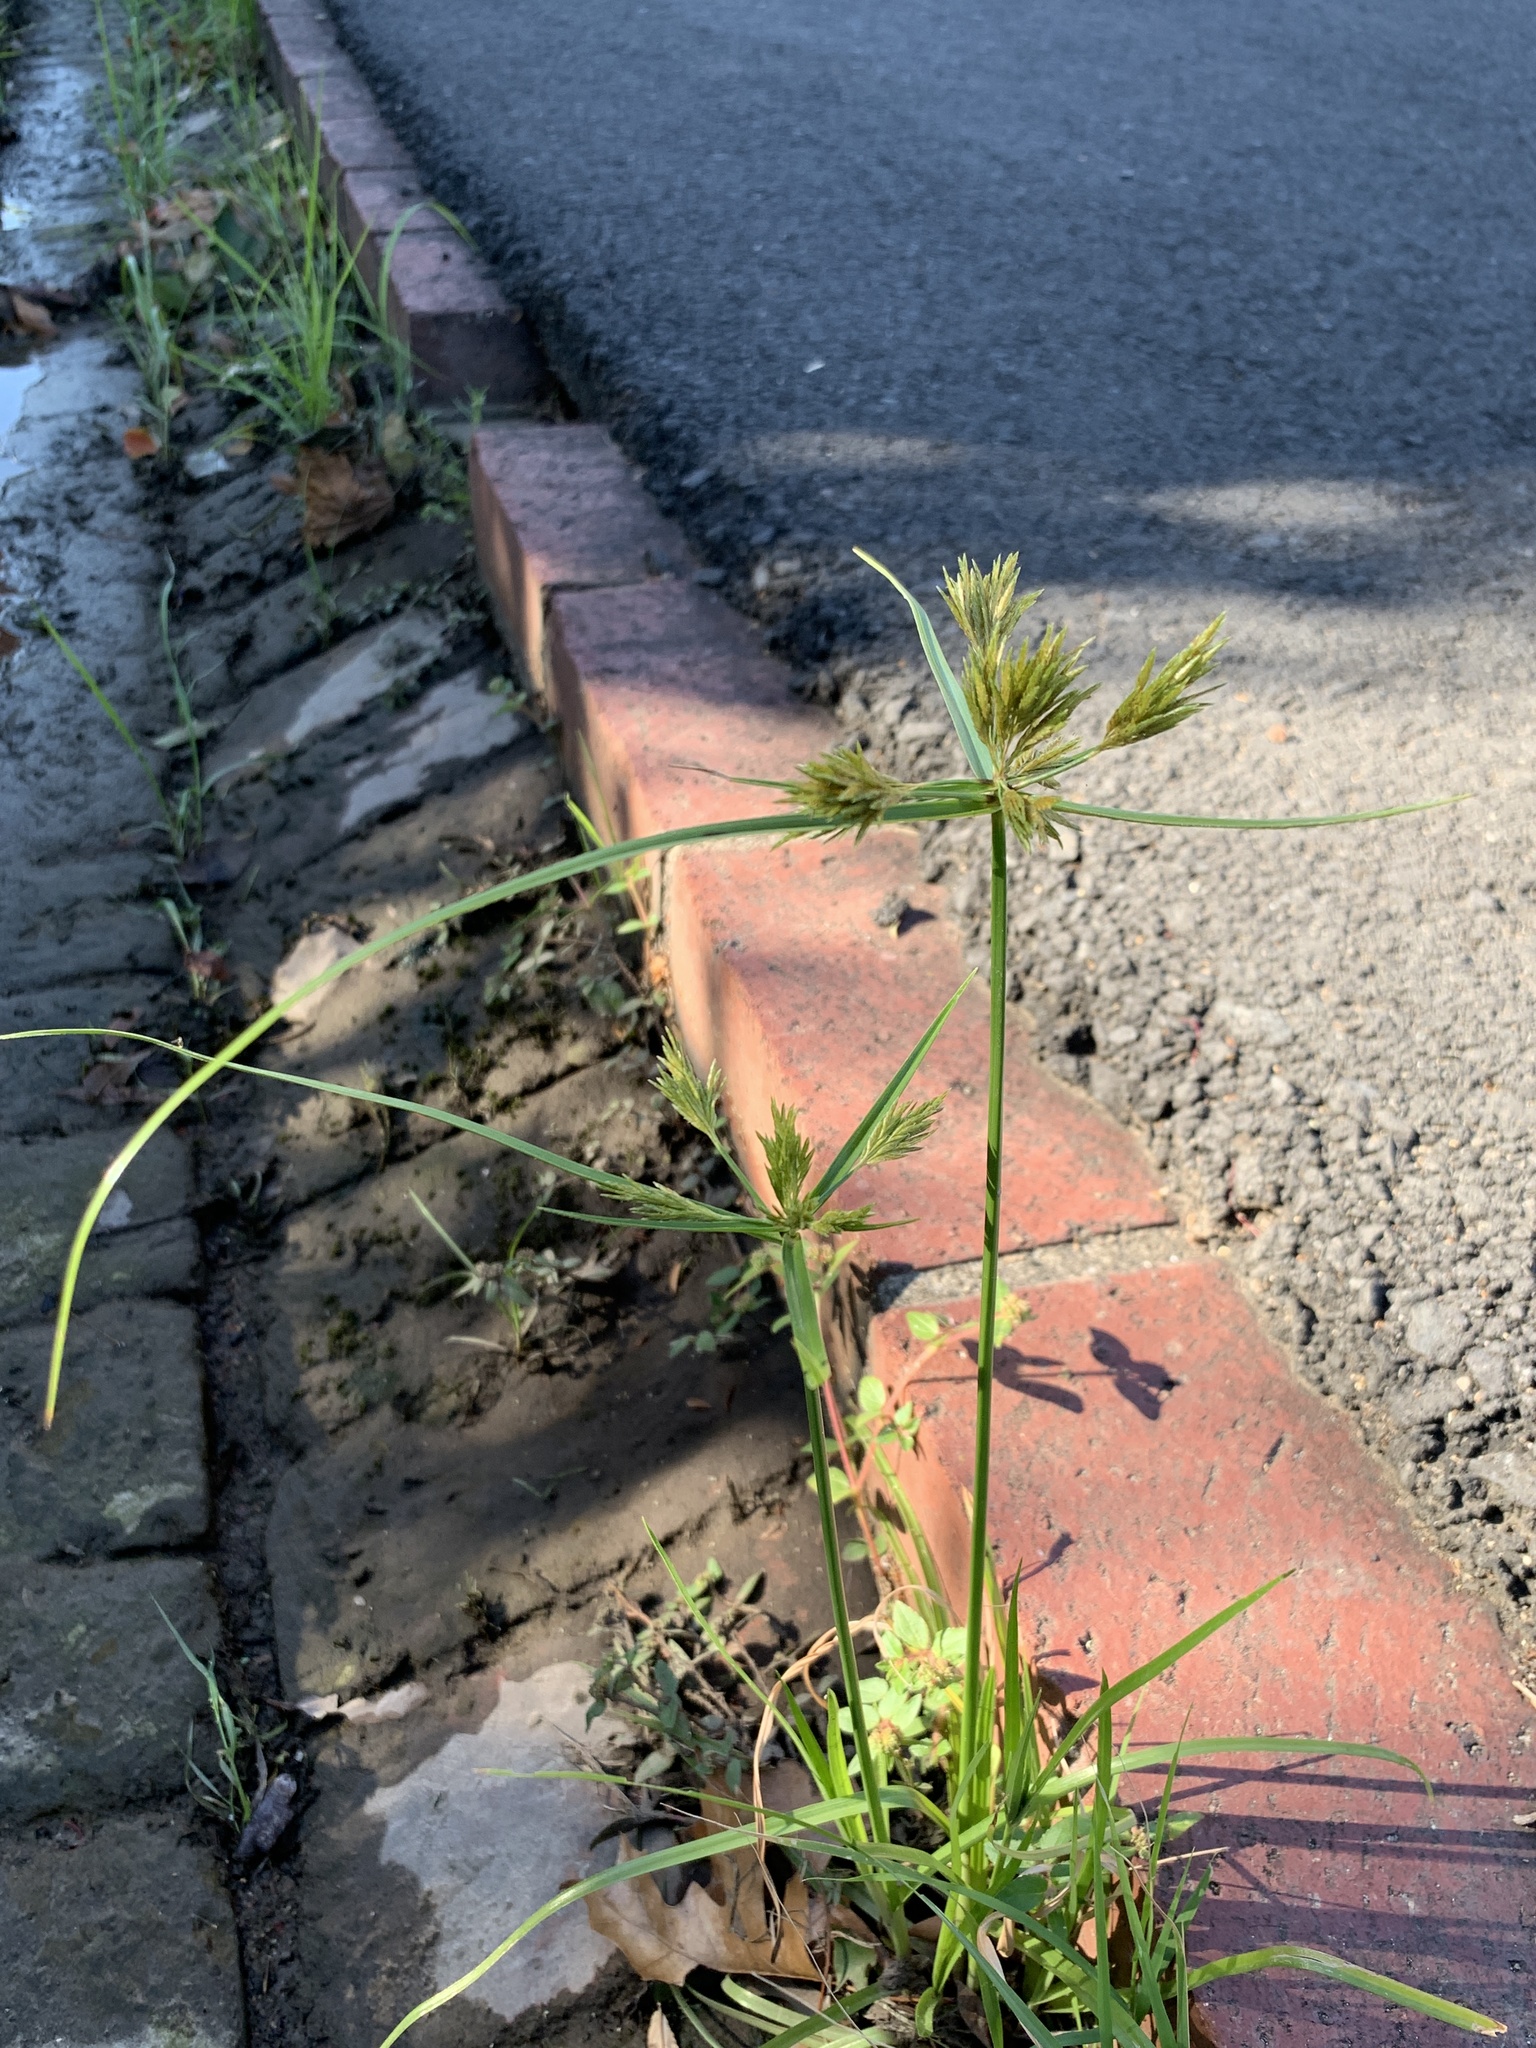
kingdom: Plantae
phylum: Tracheophyta
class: Liliopsida
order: Poales
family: Cyperaceae
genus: Cyperus
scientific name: Cyperus polystachyos
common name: Bunchy flat sedge
